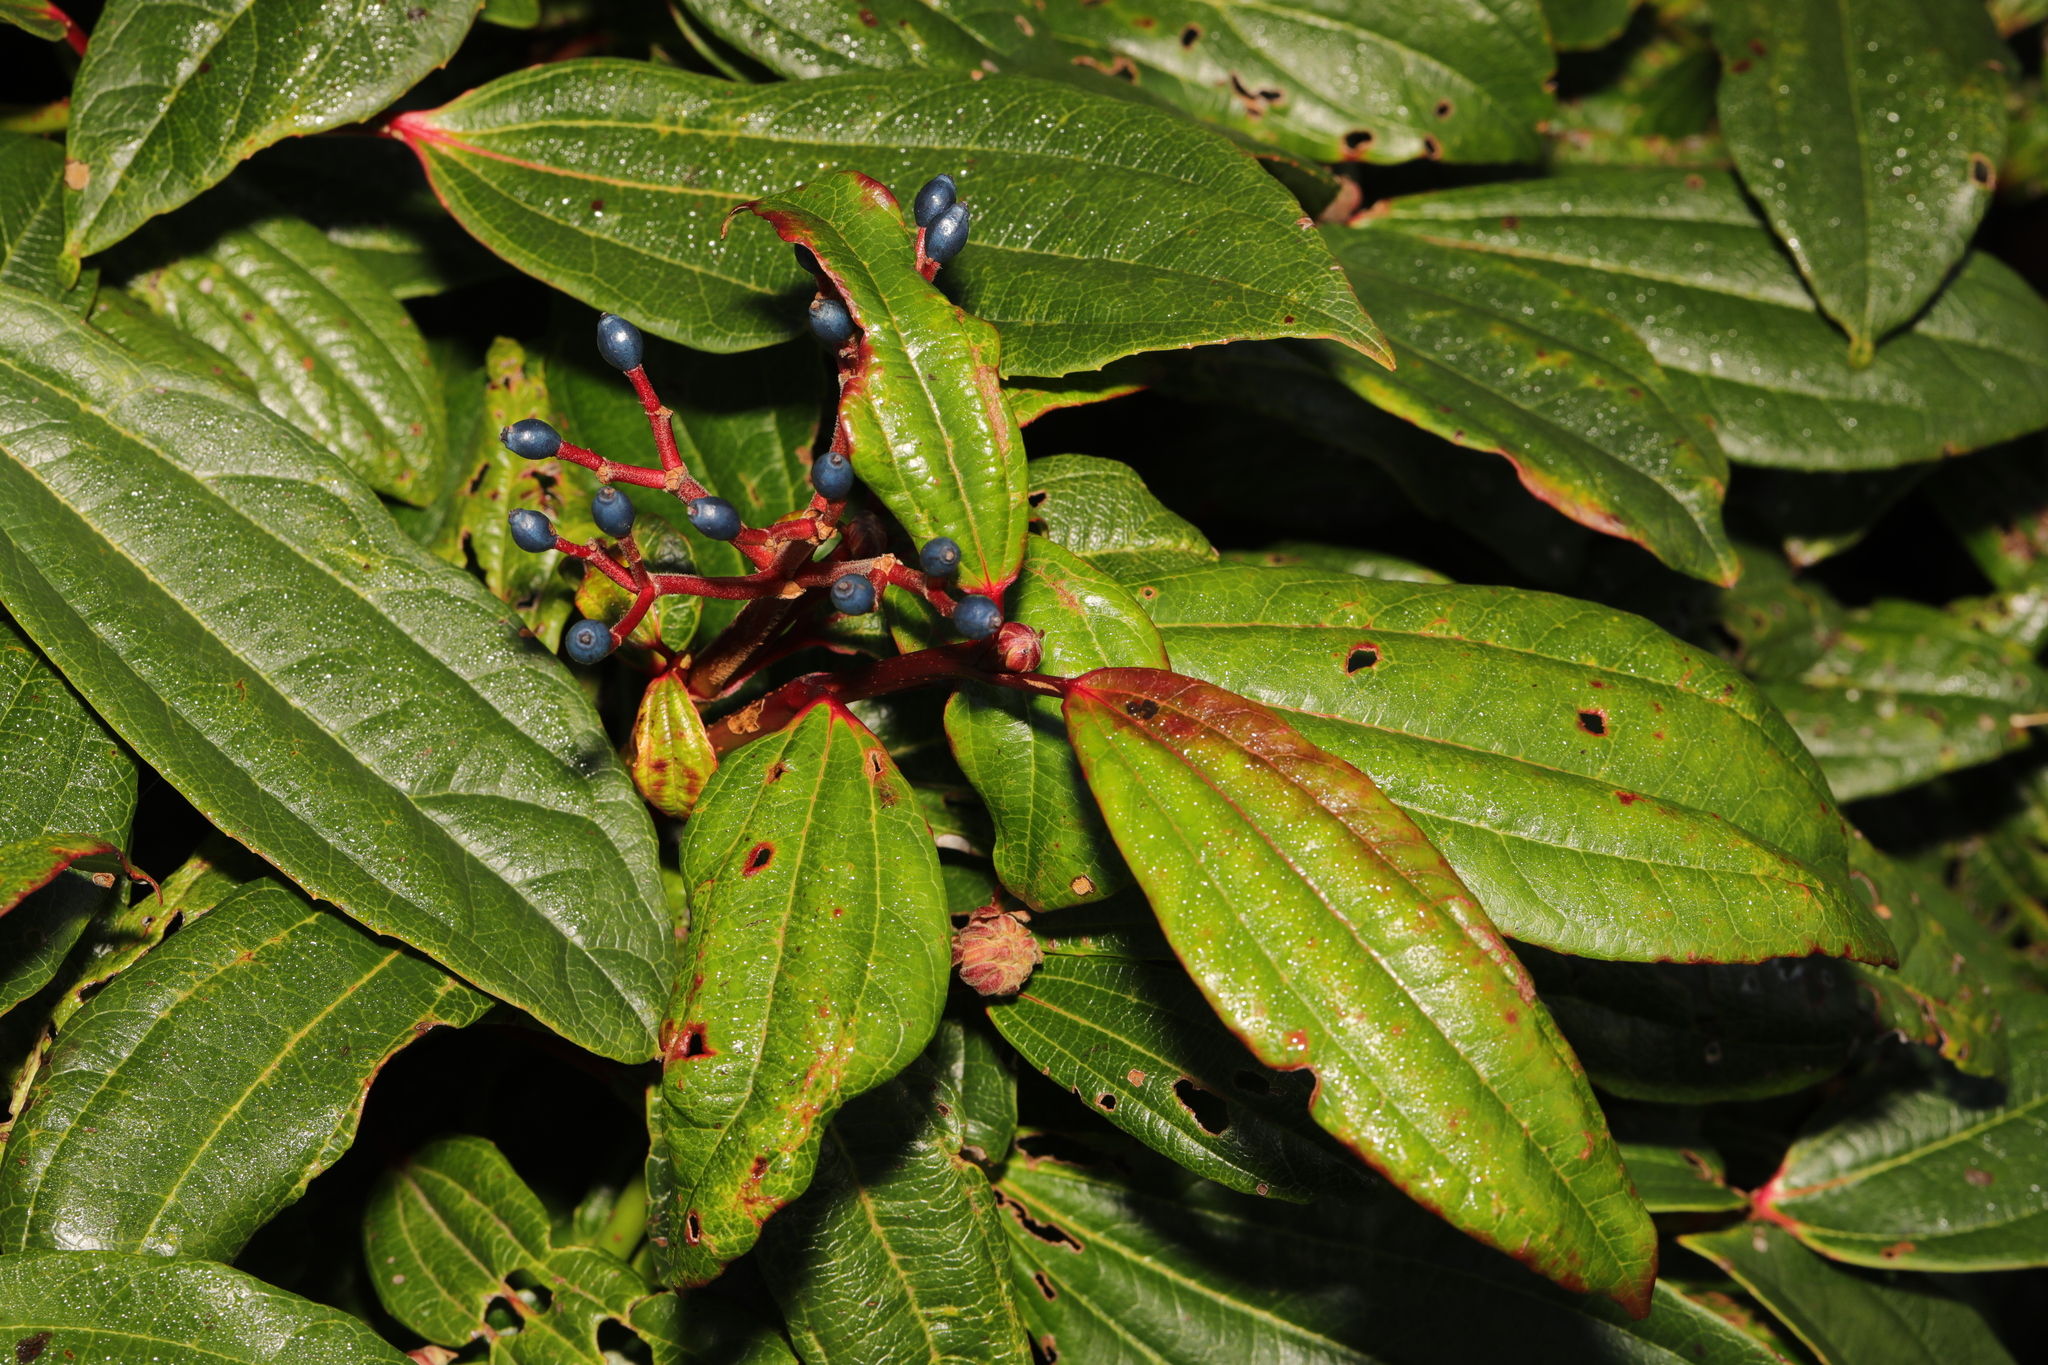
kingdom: Plantae
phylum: Tracheophyta
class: Magnoliopsida
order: Dipsacales
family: Viburnaceae
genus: Viburnum
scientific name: Viburnum davidi
